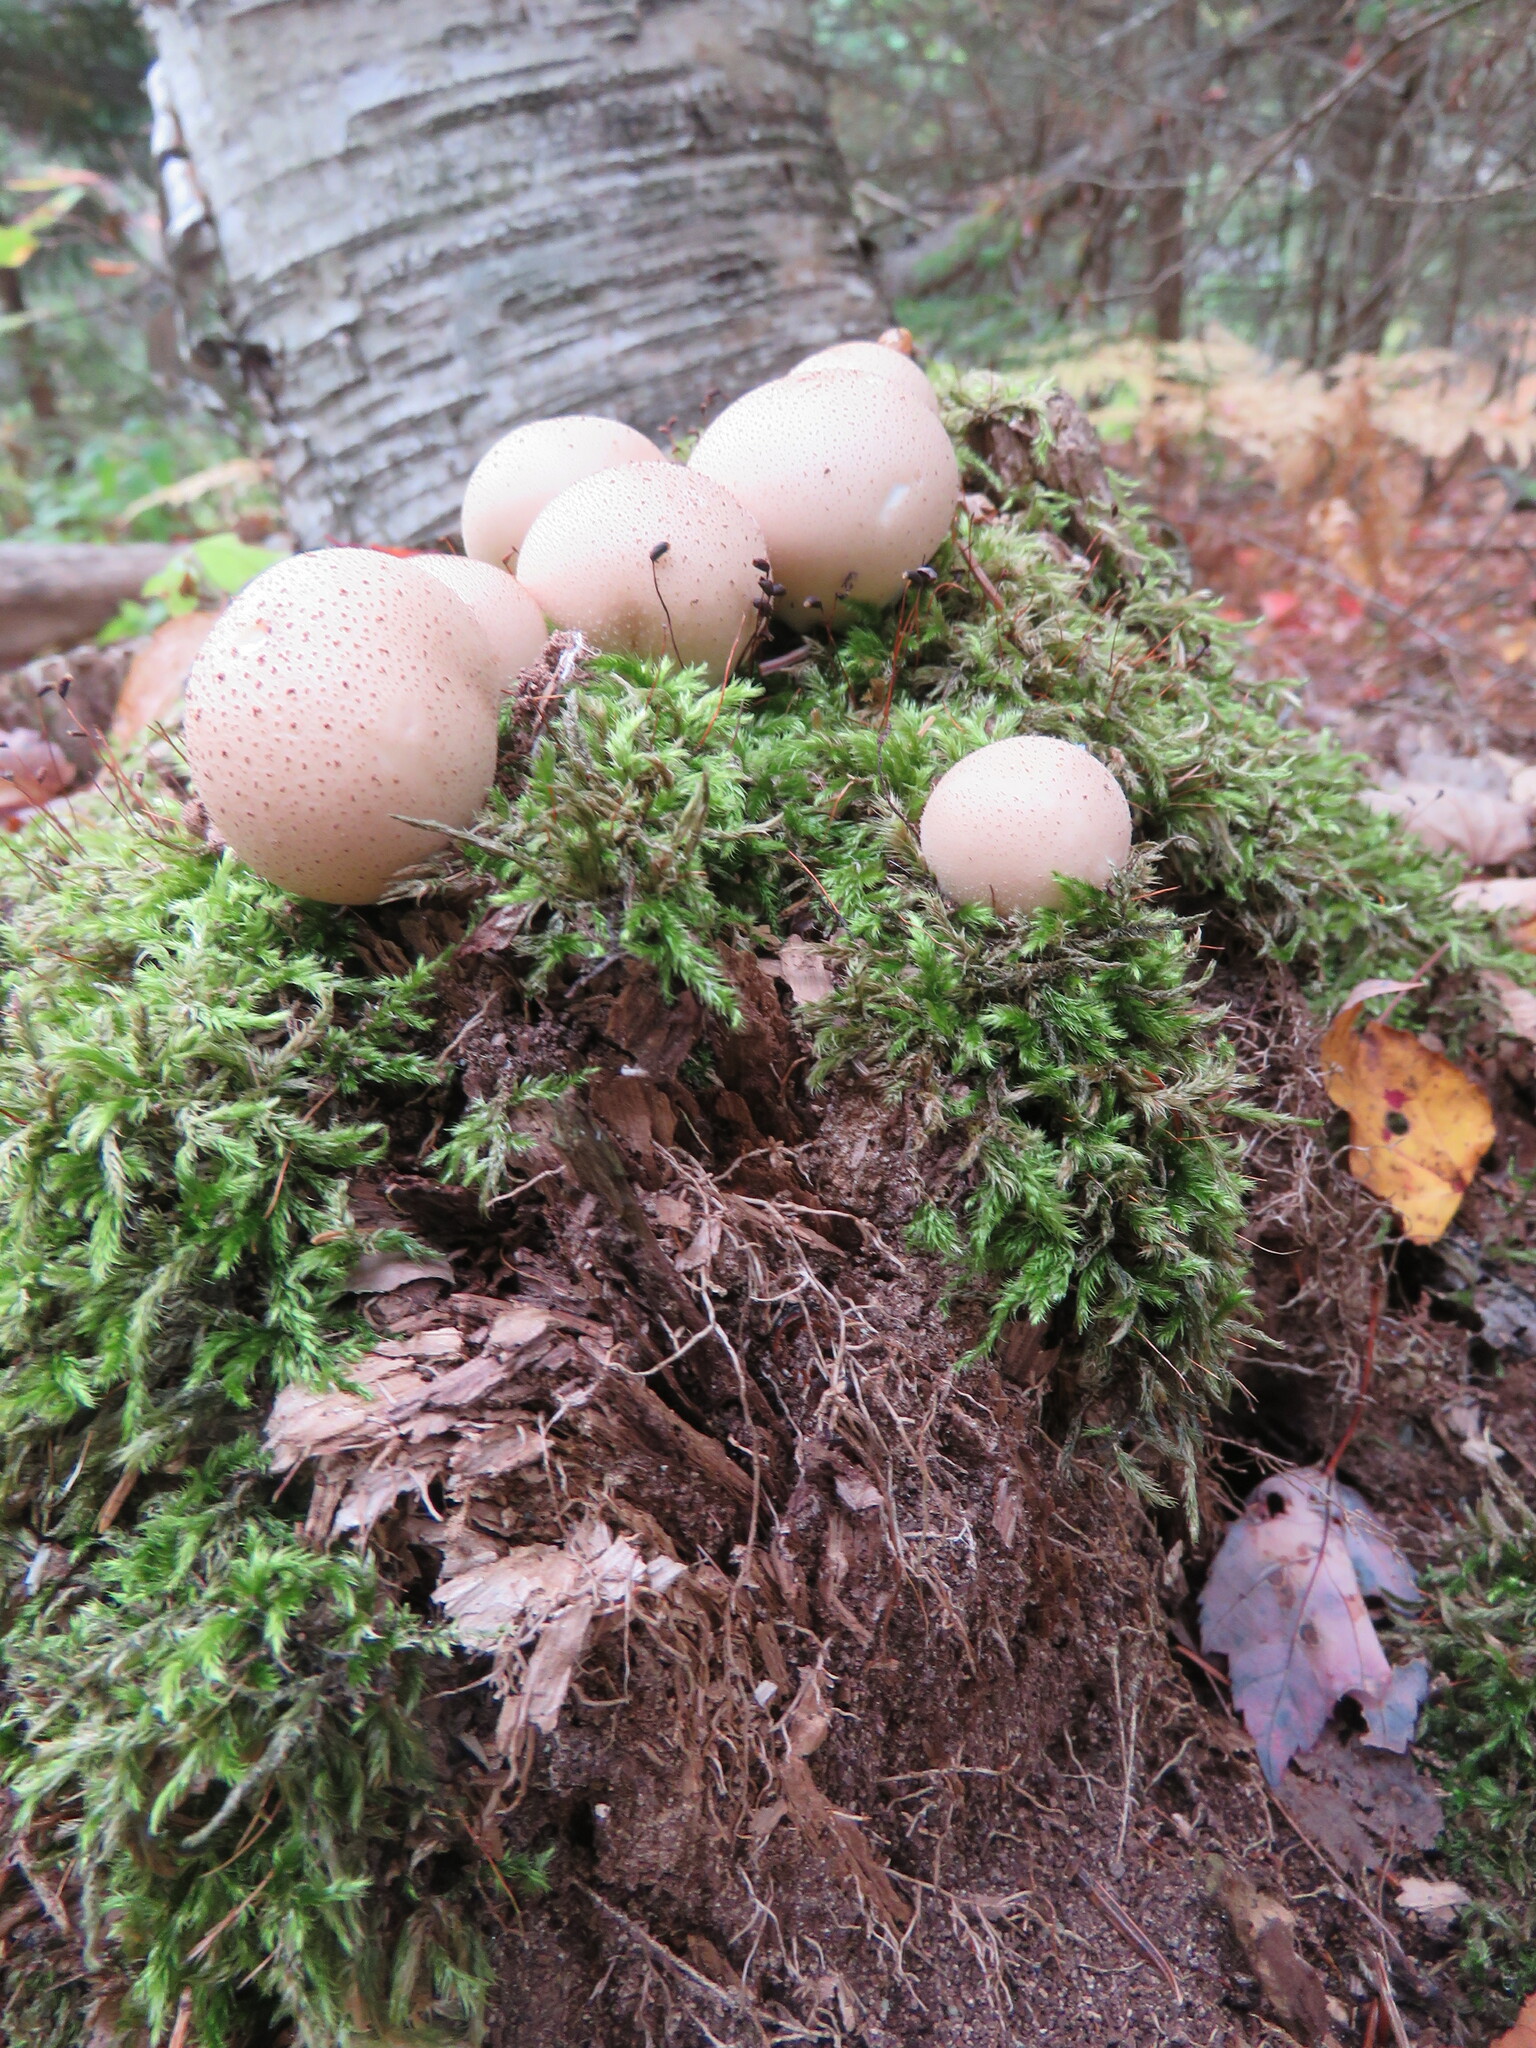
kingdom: Fungi
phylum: Basidiomycota
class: Agaricomycetes
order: Agaricales
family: Lycoperdaceae
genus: Lycoperdon
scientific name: Lycoperdon perlatum
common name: Common puffball
